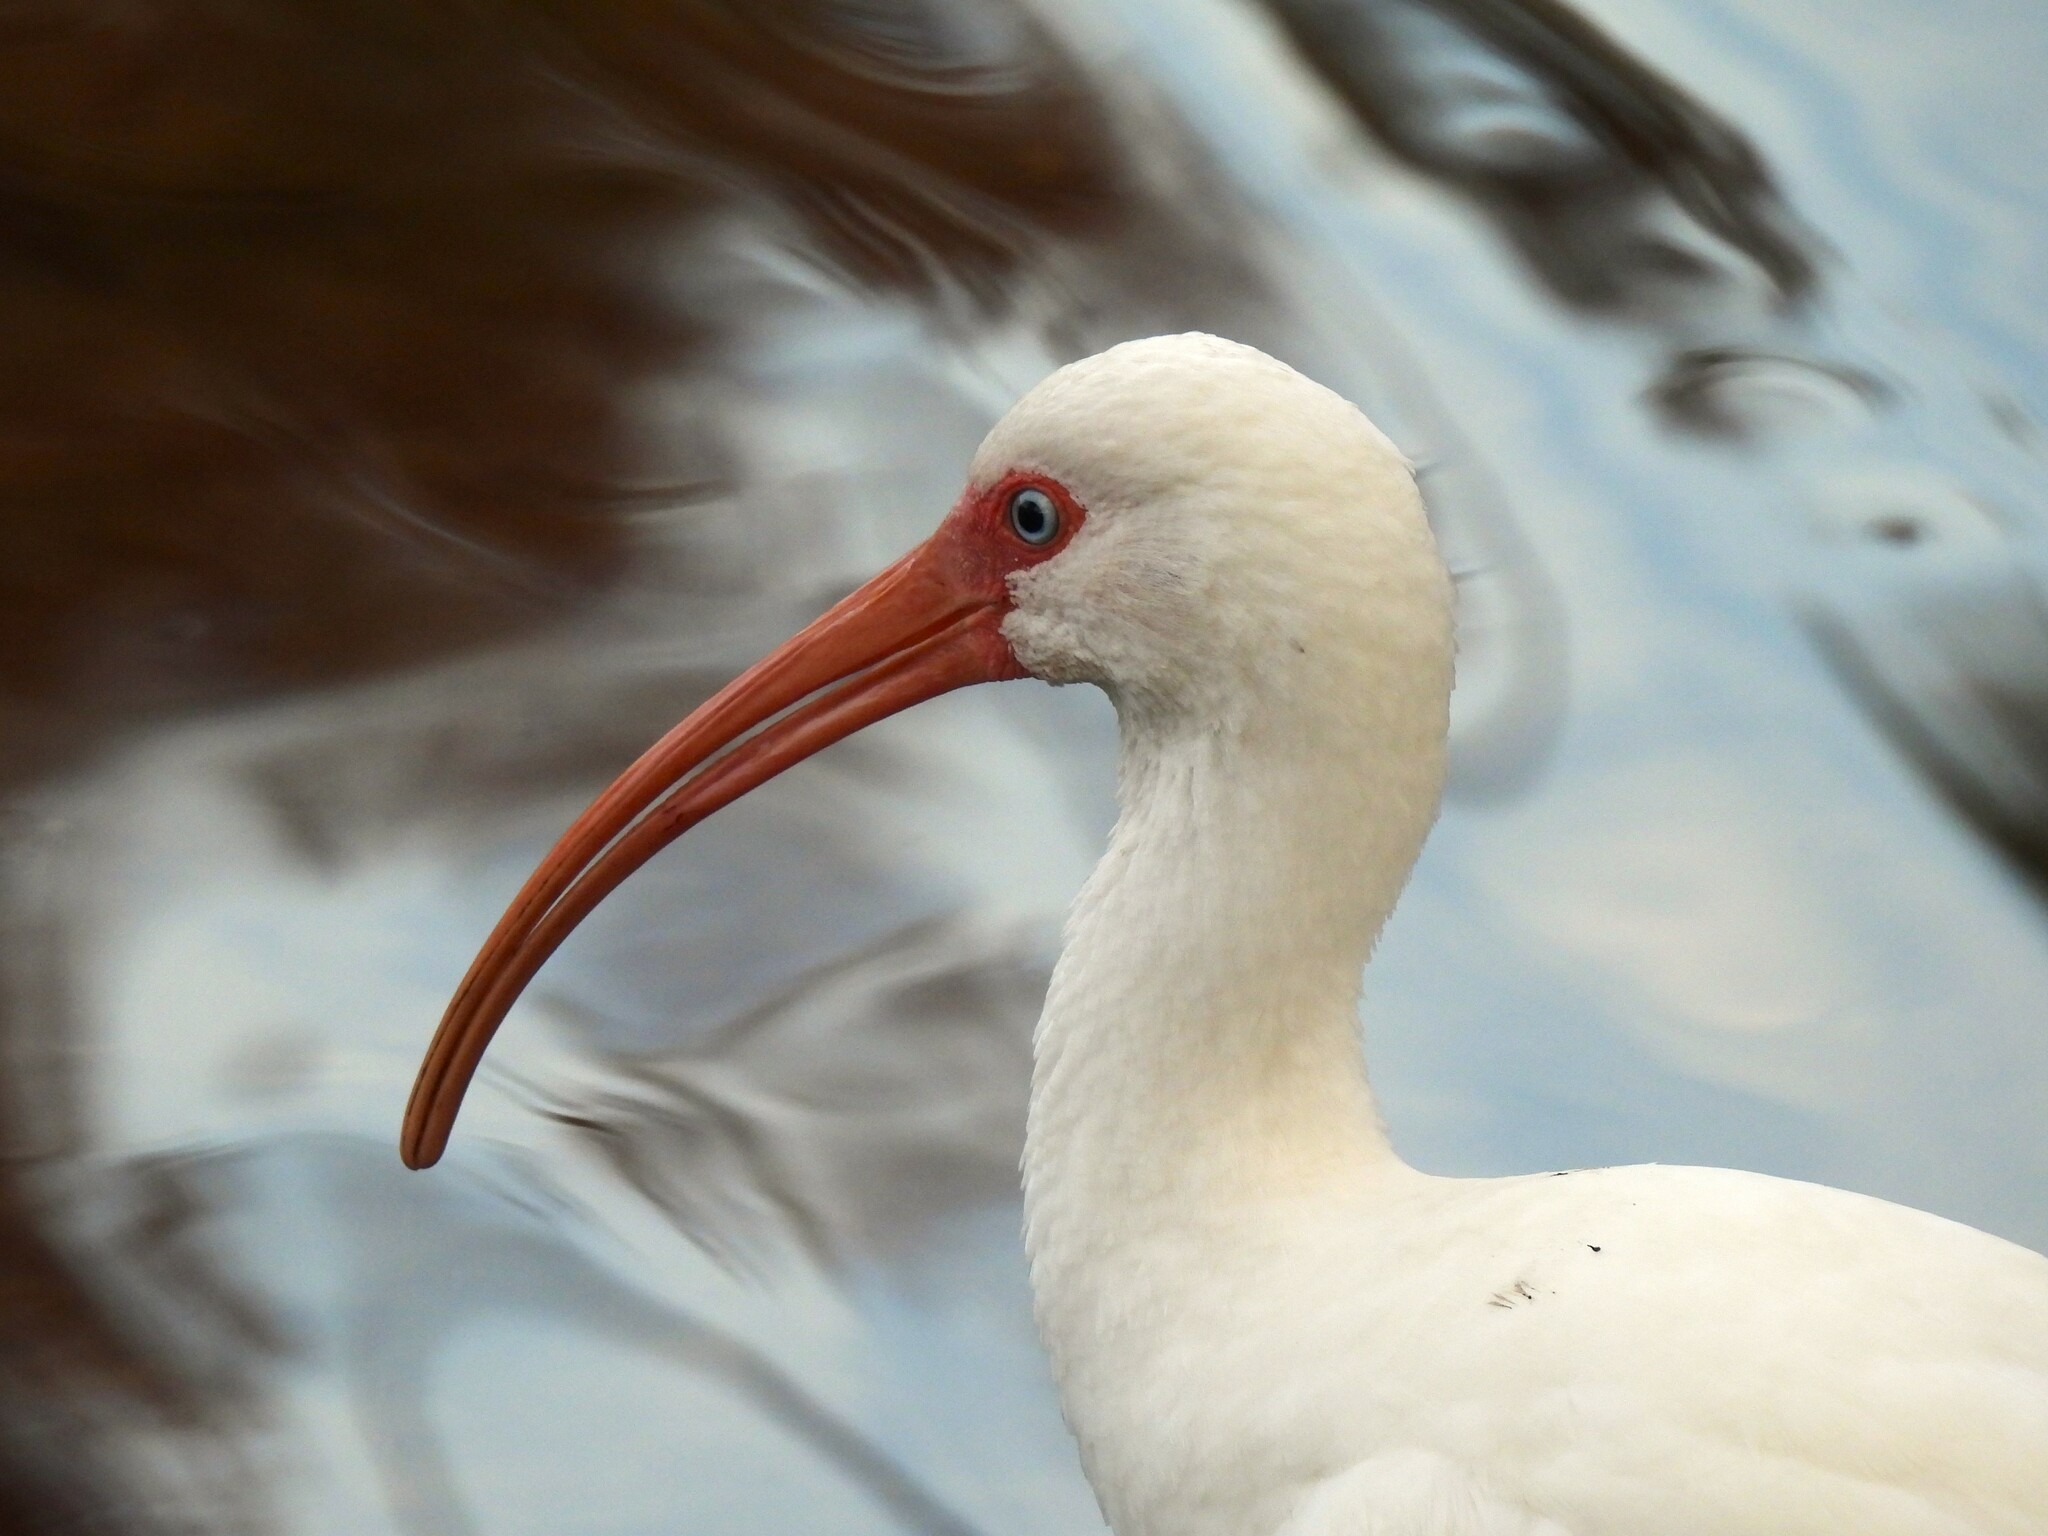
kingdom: Animalia
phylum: Chordata
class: Aves
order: Pelecaniformes
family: Threskiornithidae
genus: Eudocimus
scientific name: Eudocimus albus
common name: White ibis
